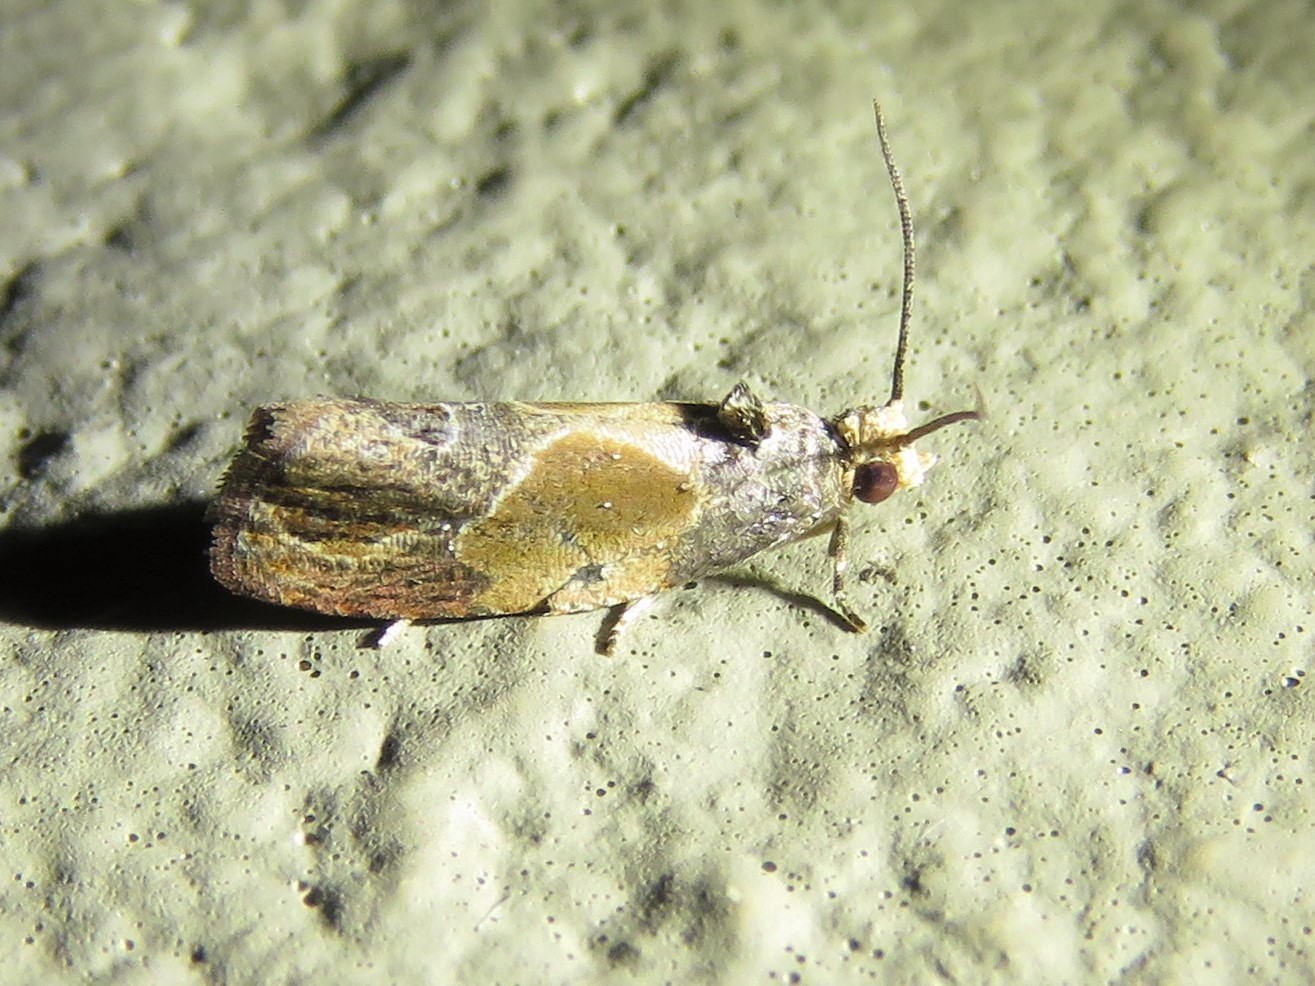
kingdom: Animalia
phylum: Arthropoda
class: Insecta
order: Lepidoptera
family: Tortricidae
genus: Eumarozia
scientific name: Eumarozia malachitana
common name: Sculptured moth
